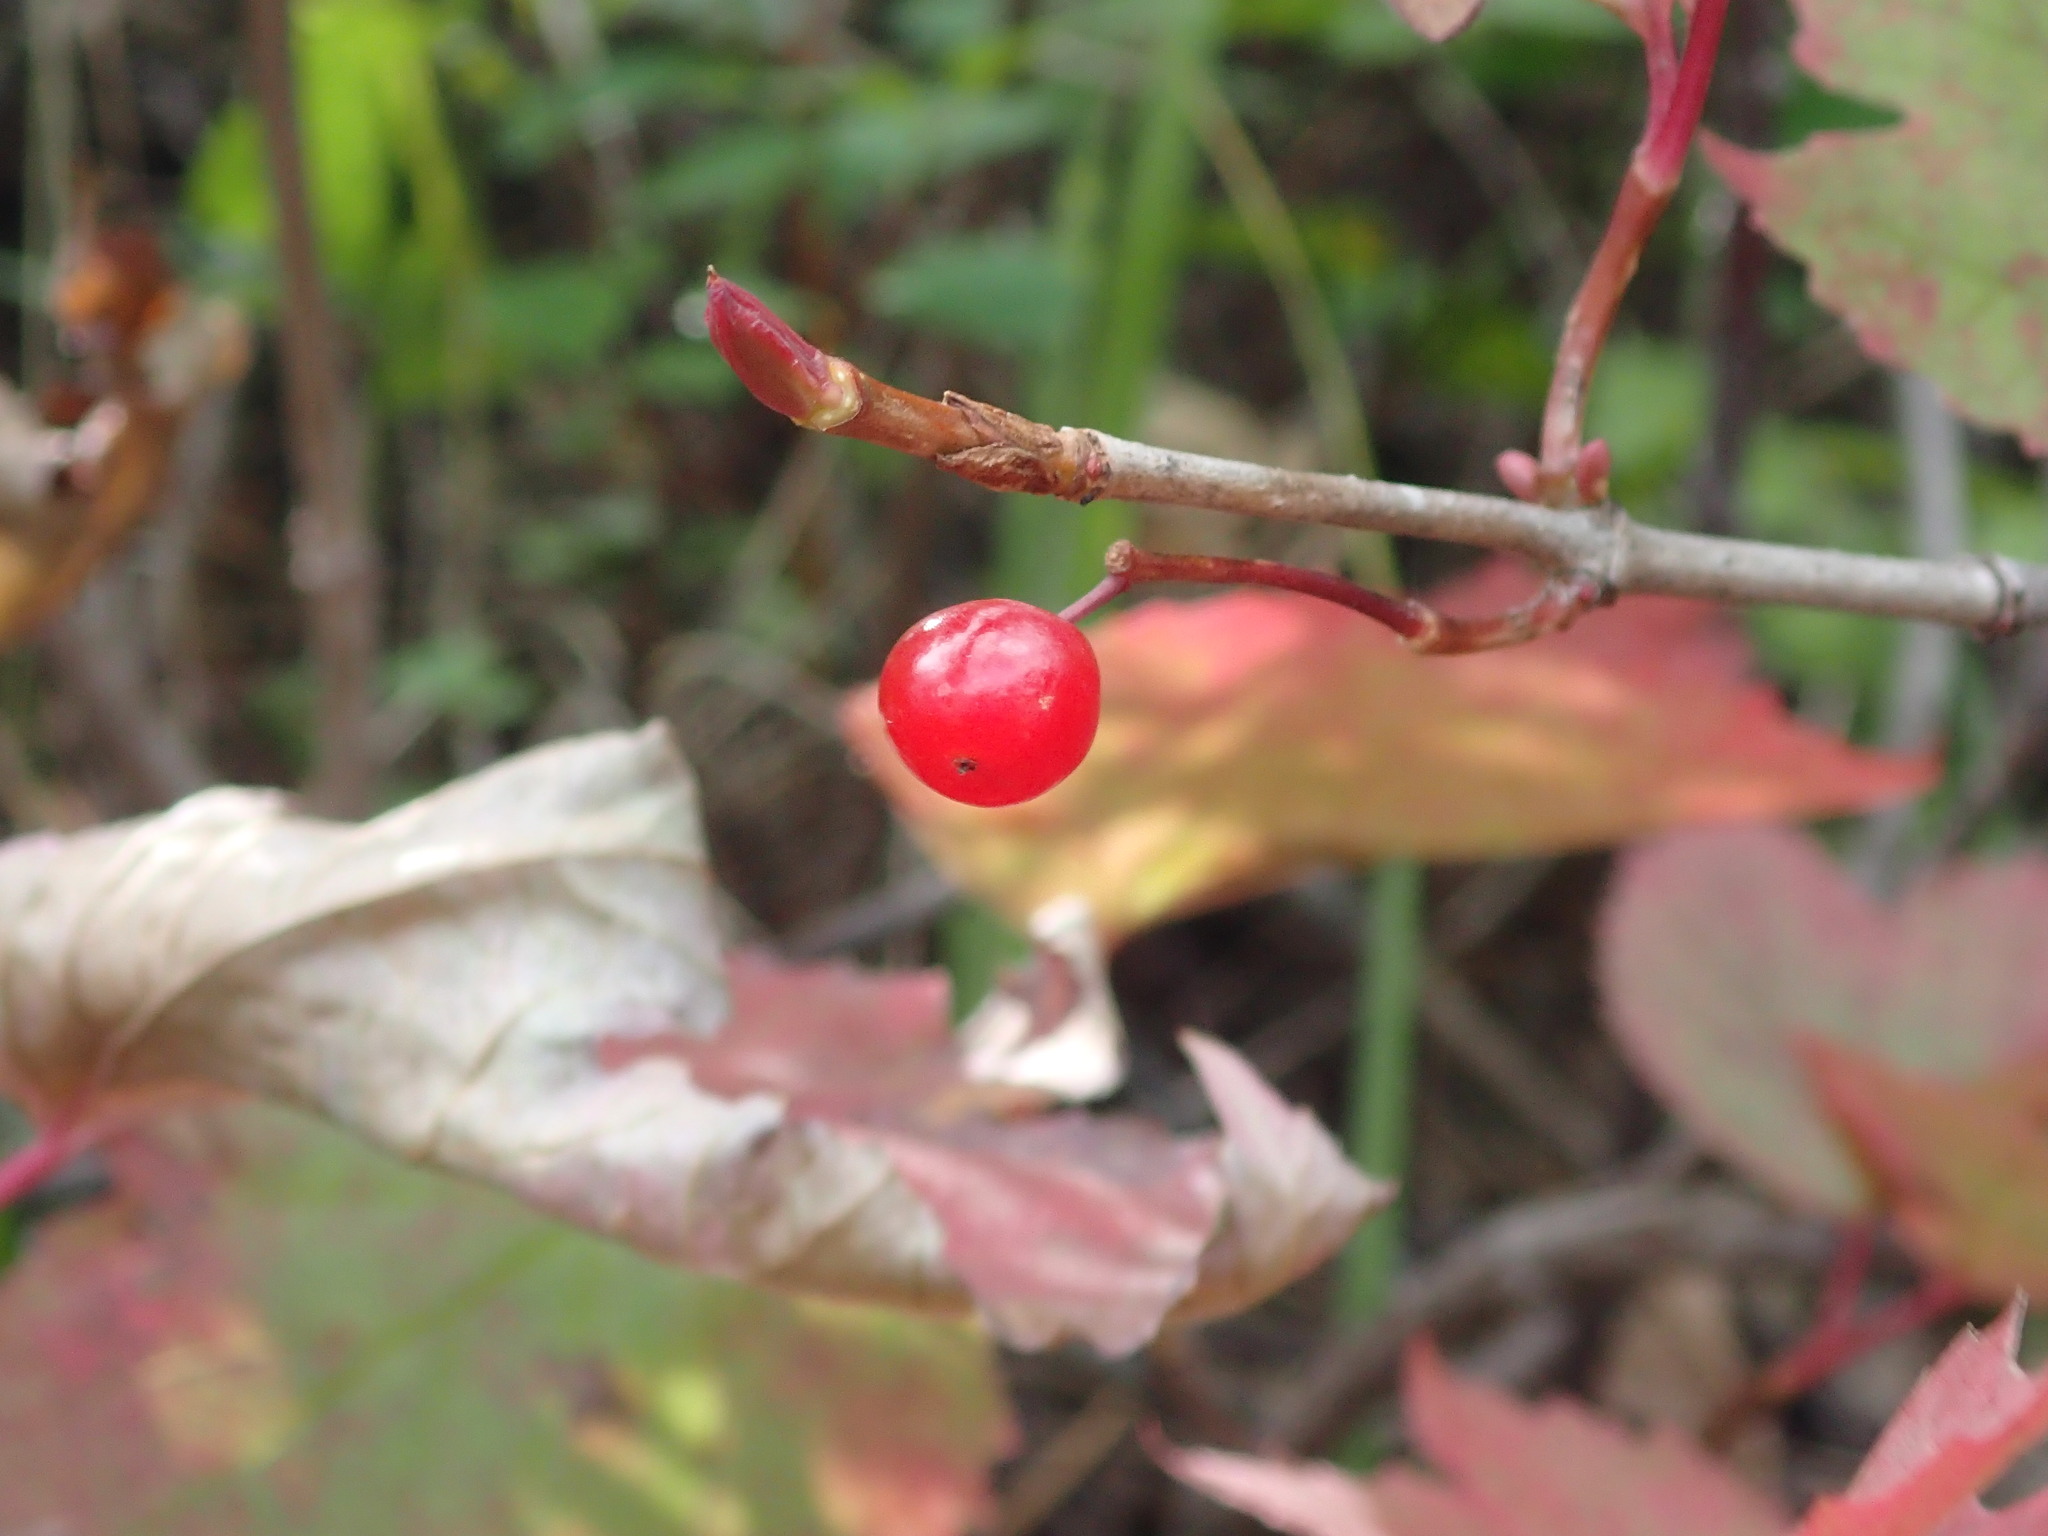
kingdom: Plantae
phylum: Tracheophyta
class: Magnoliopsida
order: Dipsacales
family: Viburnaceae
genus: Viburnum
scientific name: Viburnum edule
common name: Mooseberry
